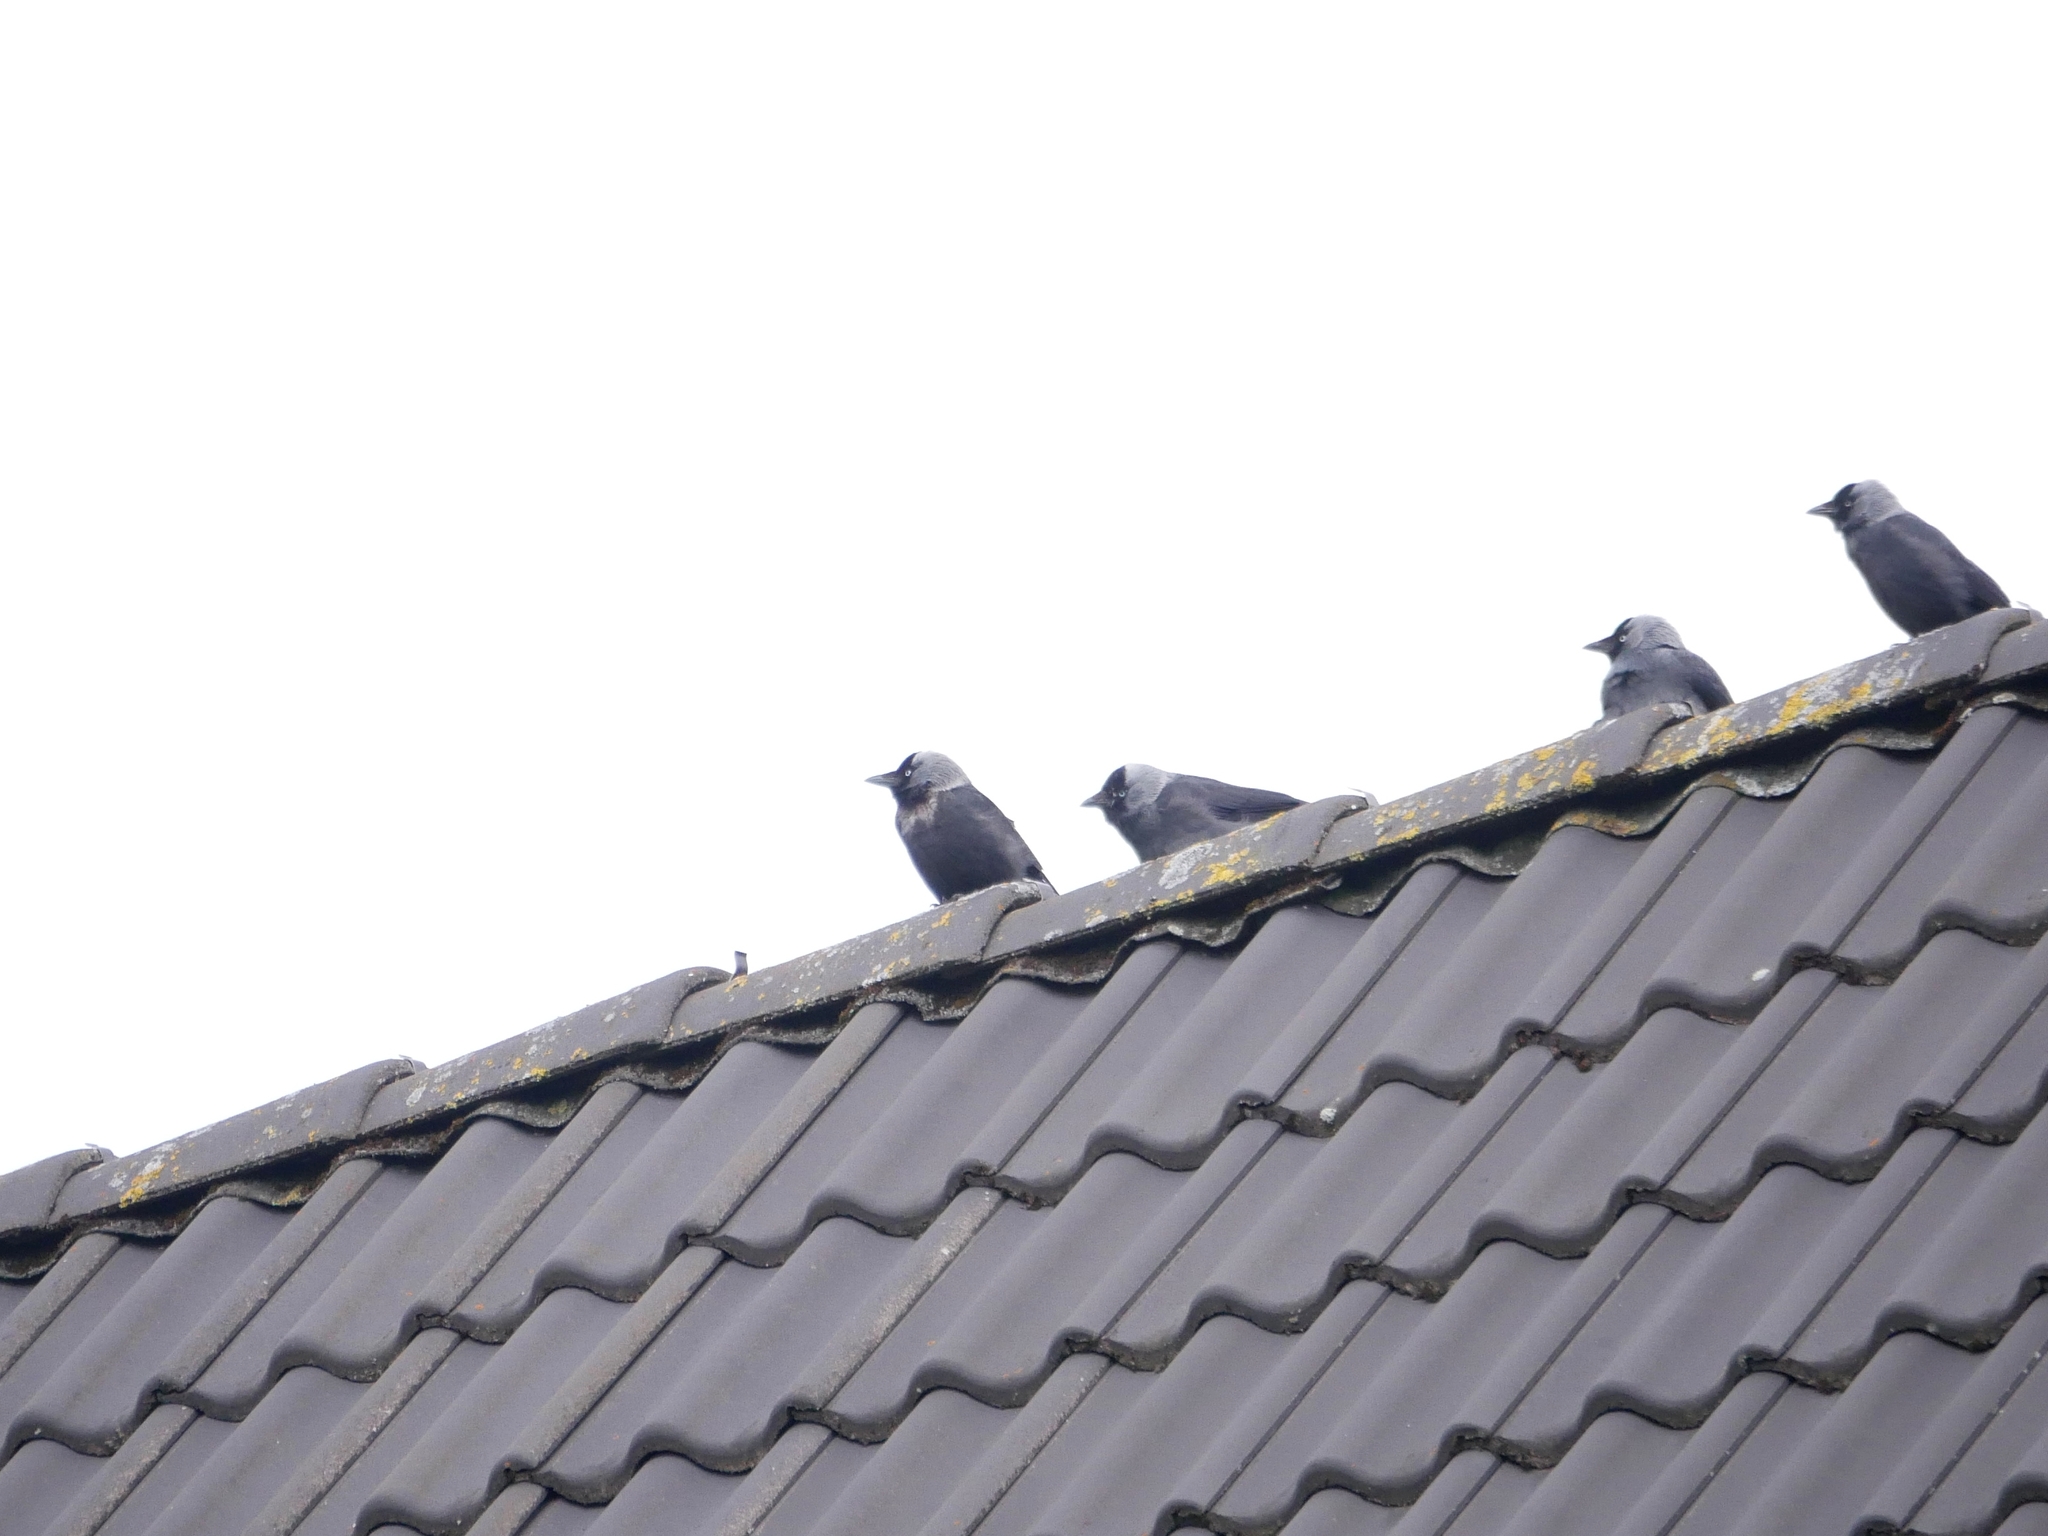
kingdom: Animalia
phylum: Chordata
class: Aves
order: Passeriformes
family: Corvidae
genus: Coloeus
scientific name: Coloeus monedula
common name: Western jackdaw
